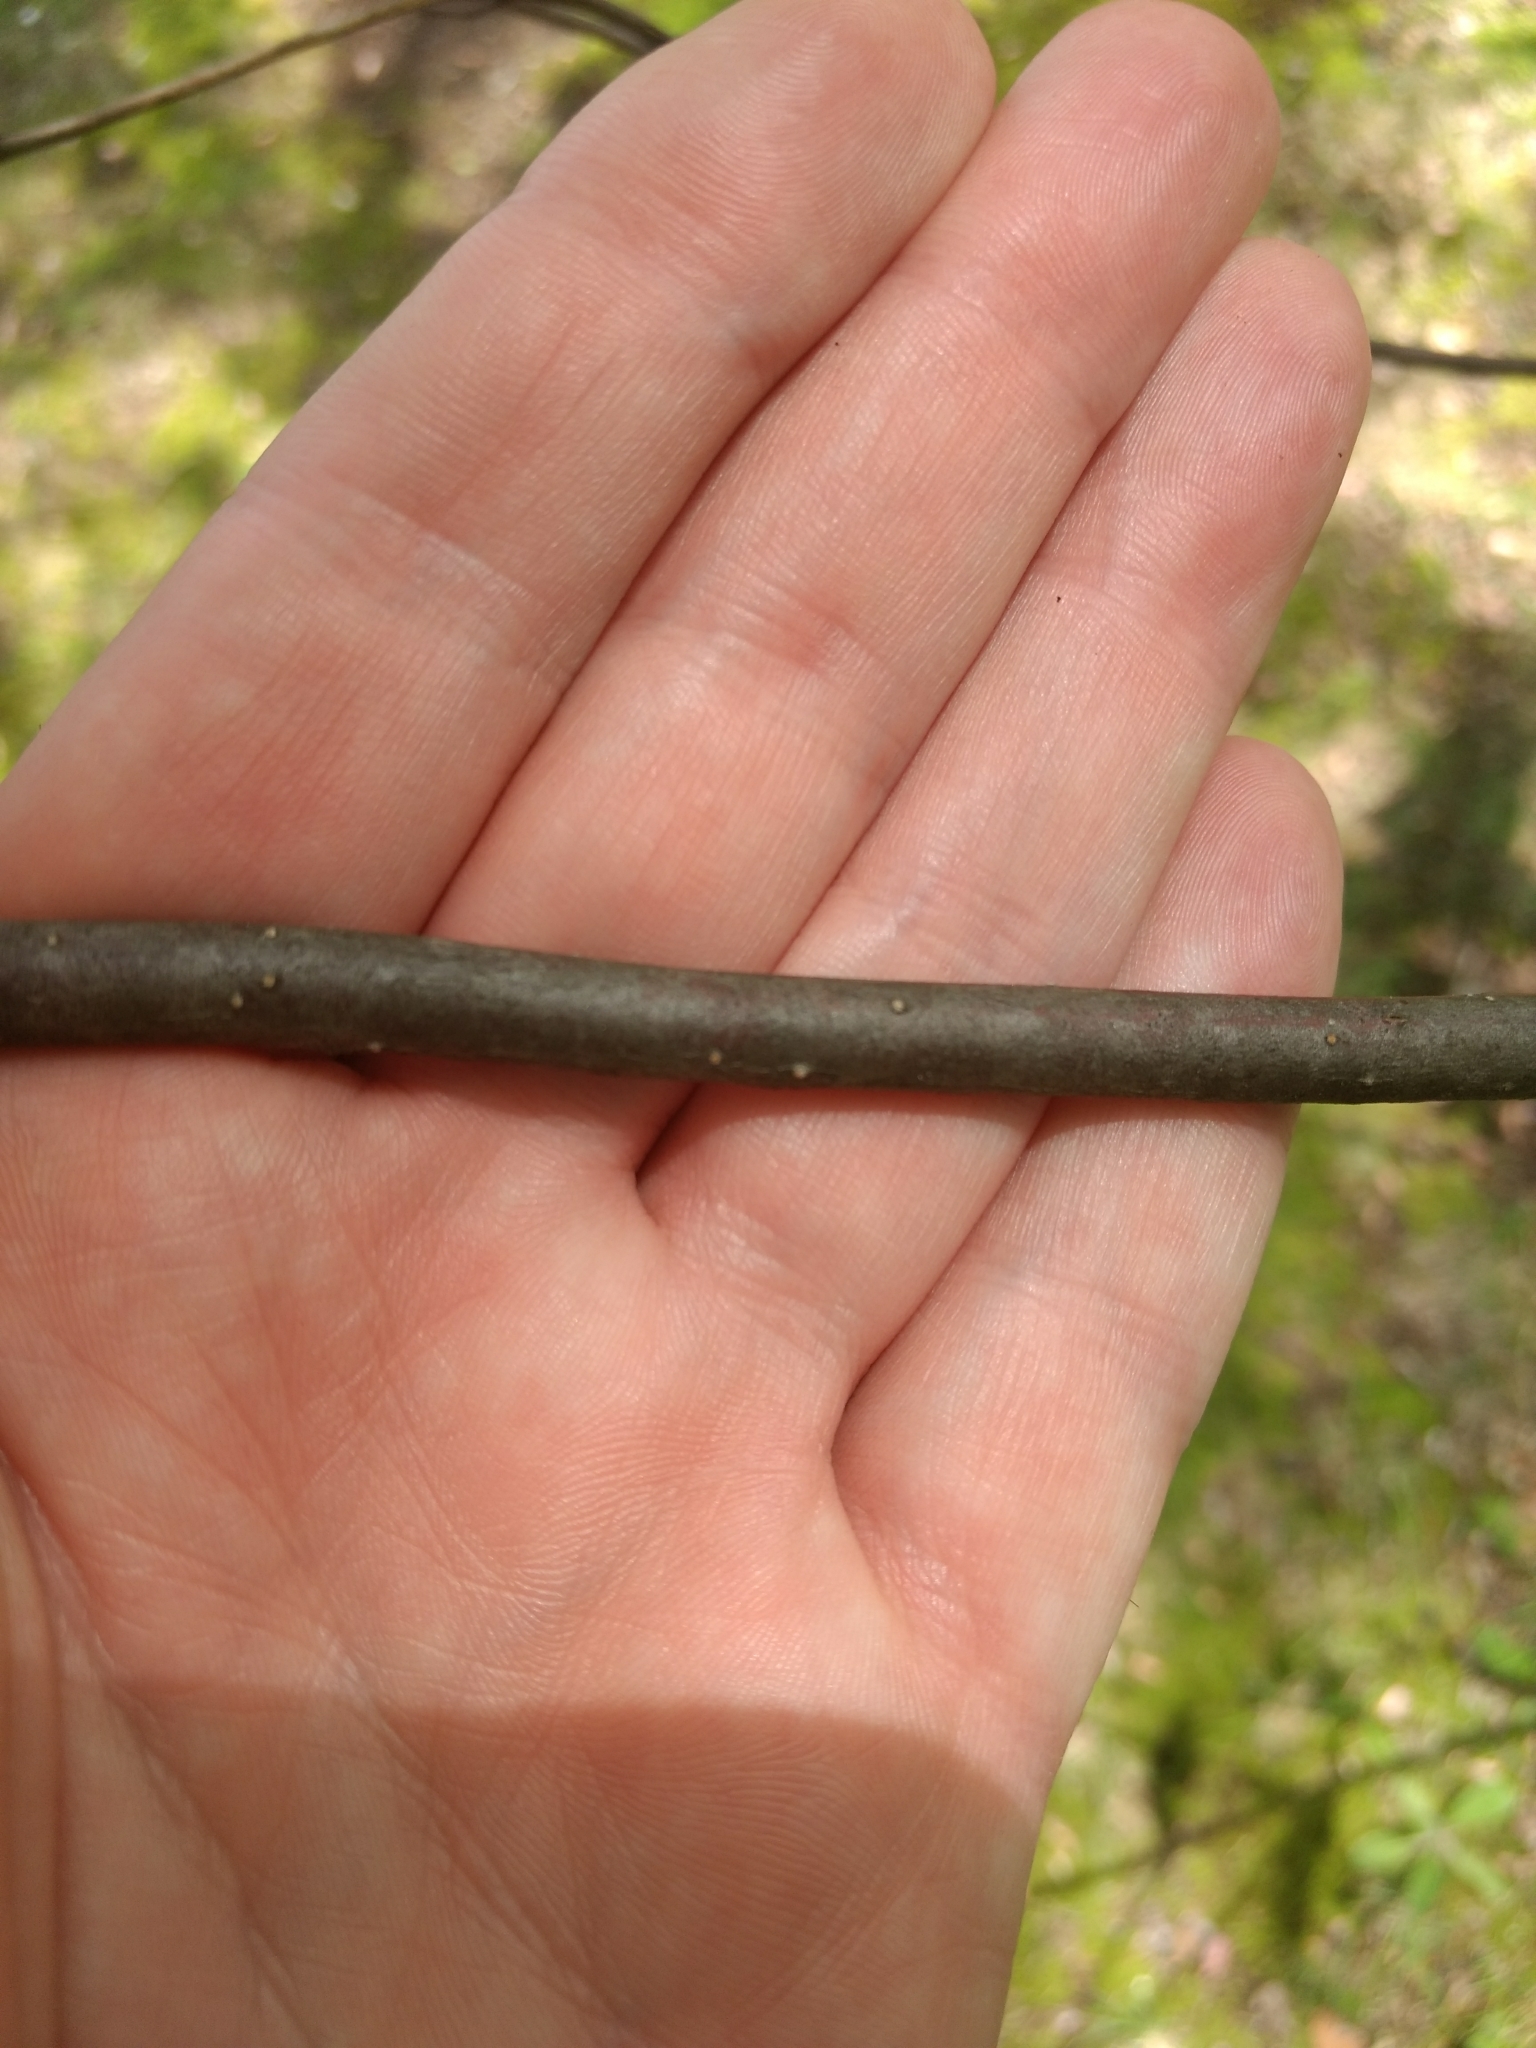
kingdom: Plantae
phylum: Tracheophyta
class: Magnoliopsida
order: Dipsacales
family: Viburnaceae
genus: Viburnum
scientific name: Viburnum dentatum
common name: Arrow-wood
